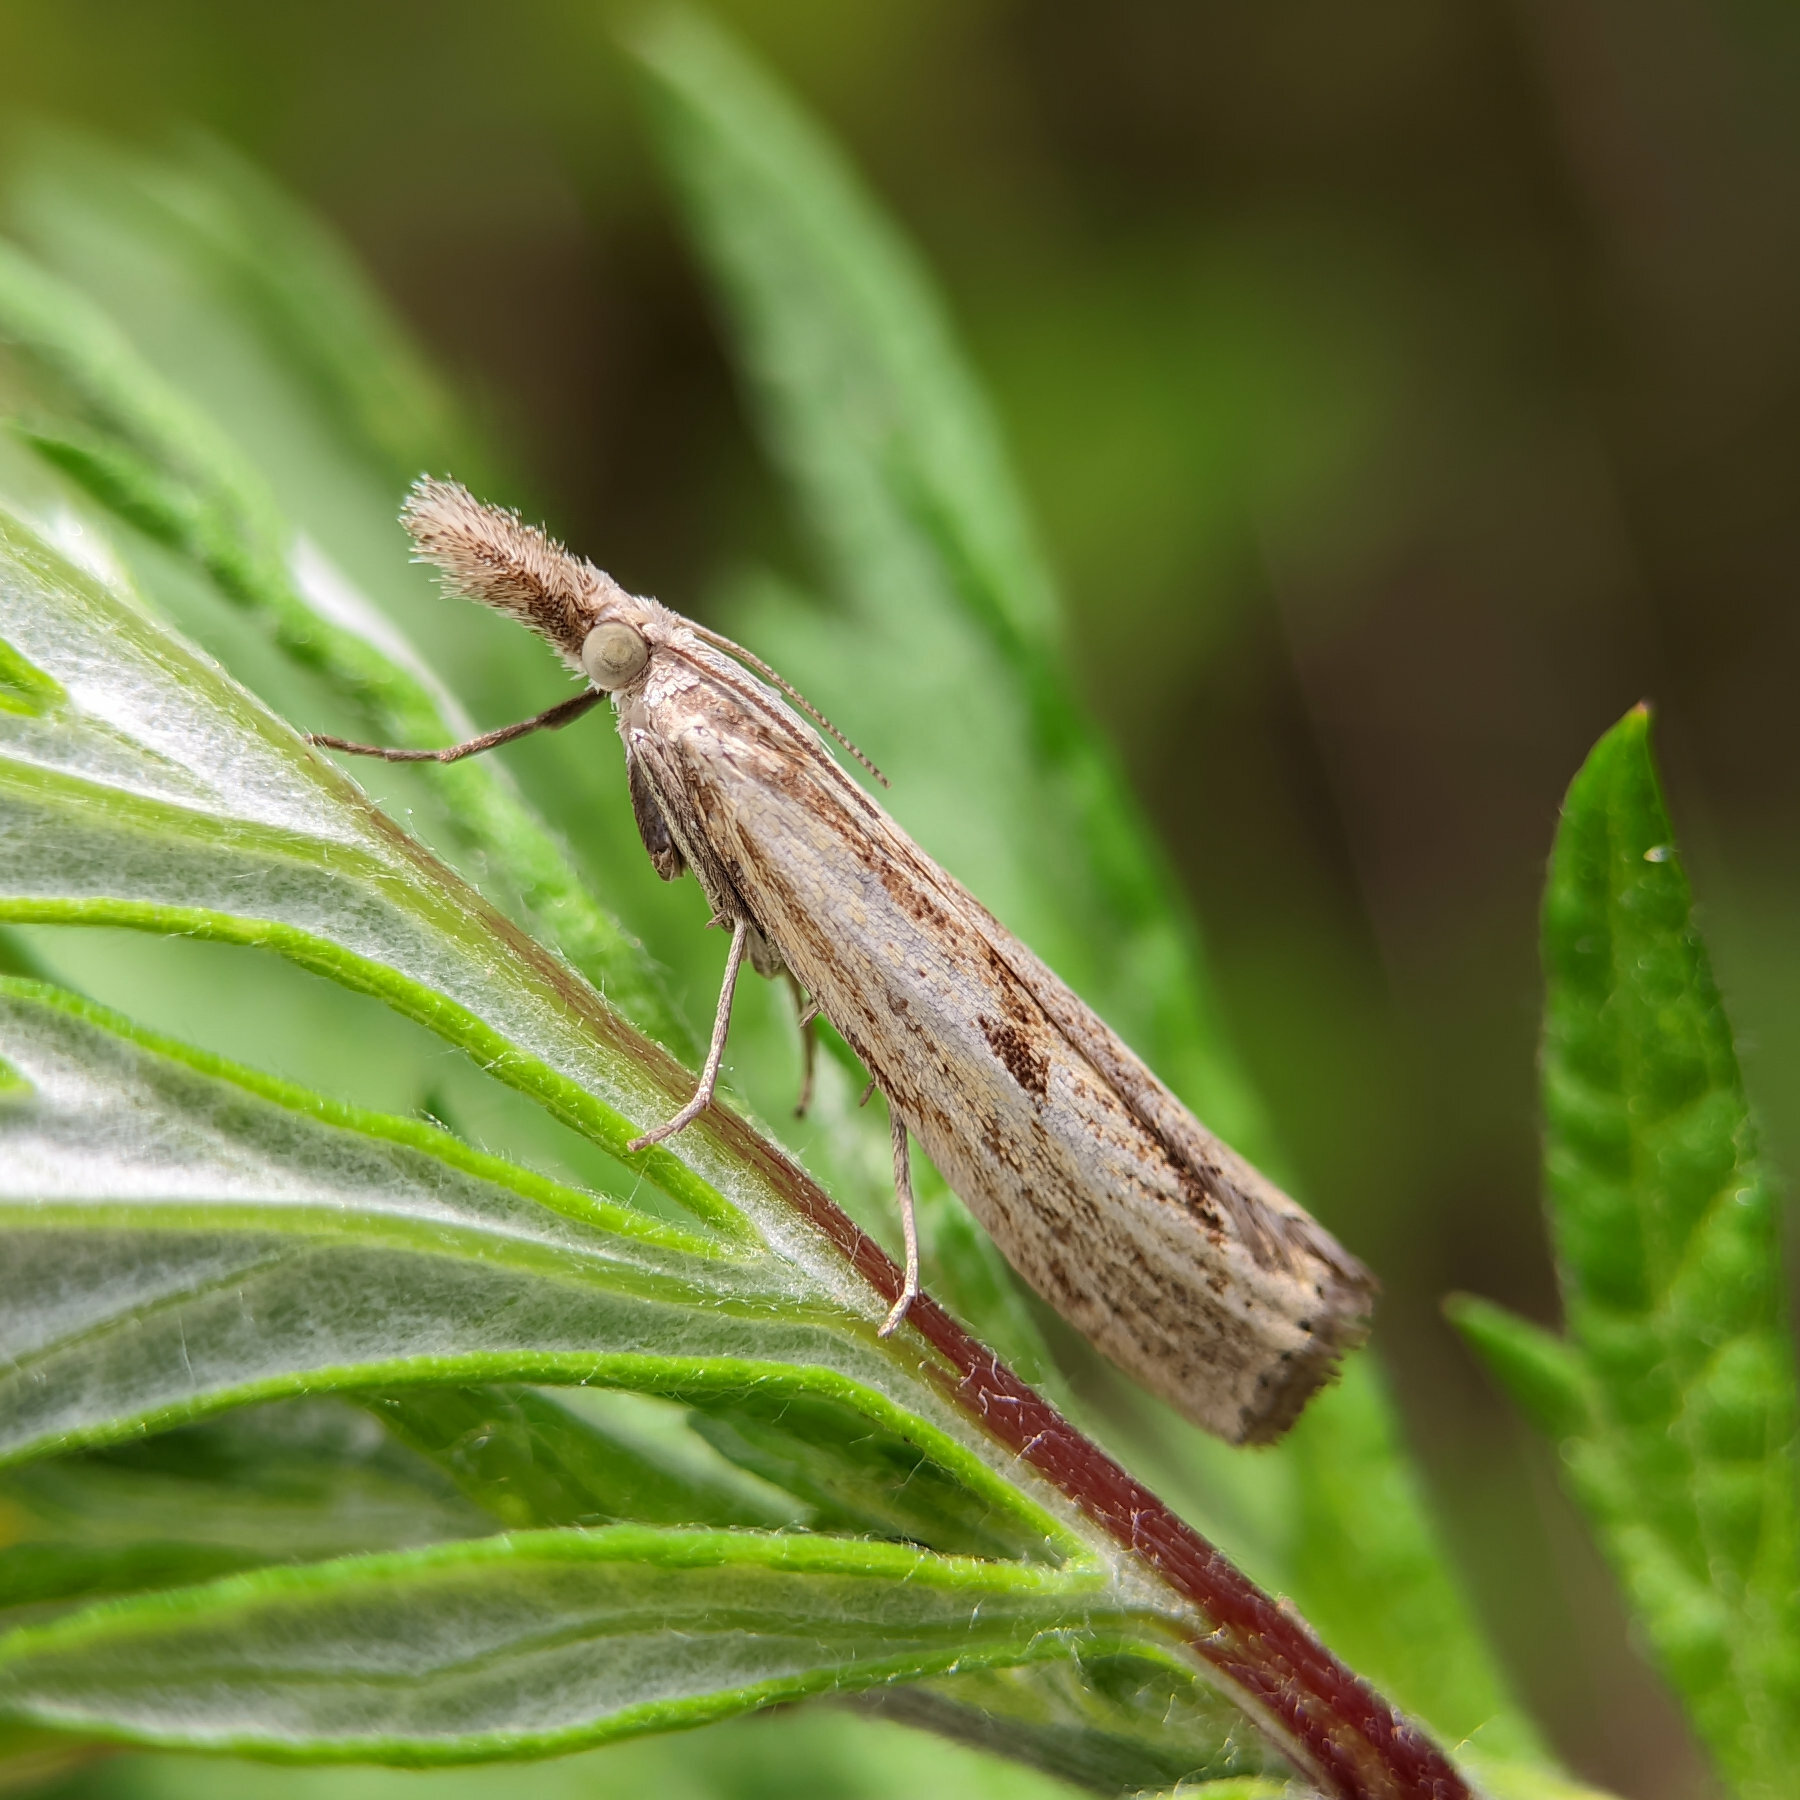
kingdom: Animalia
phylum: Arthropoda
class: Insecta
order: Lepidoptera
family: Crambidae
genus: Agriphila
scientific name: Agriphila inquinatella
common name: Barred grass-veneer
